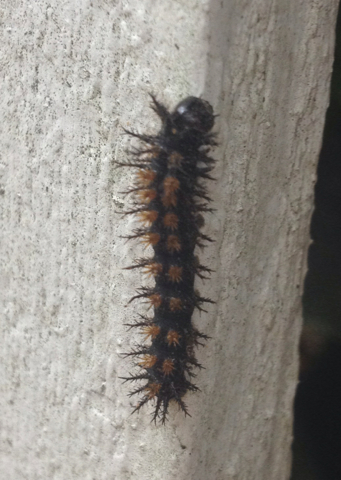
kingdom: Animalia
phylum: Arthropoda
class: Insecta
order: Lepidoptera
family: Saturniidae
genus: Hemileuca
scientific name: Hemileuca maia
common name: Eastern buckmoth
